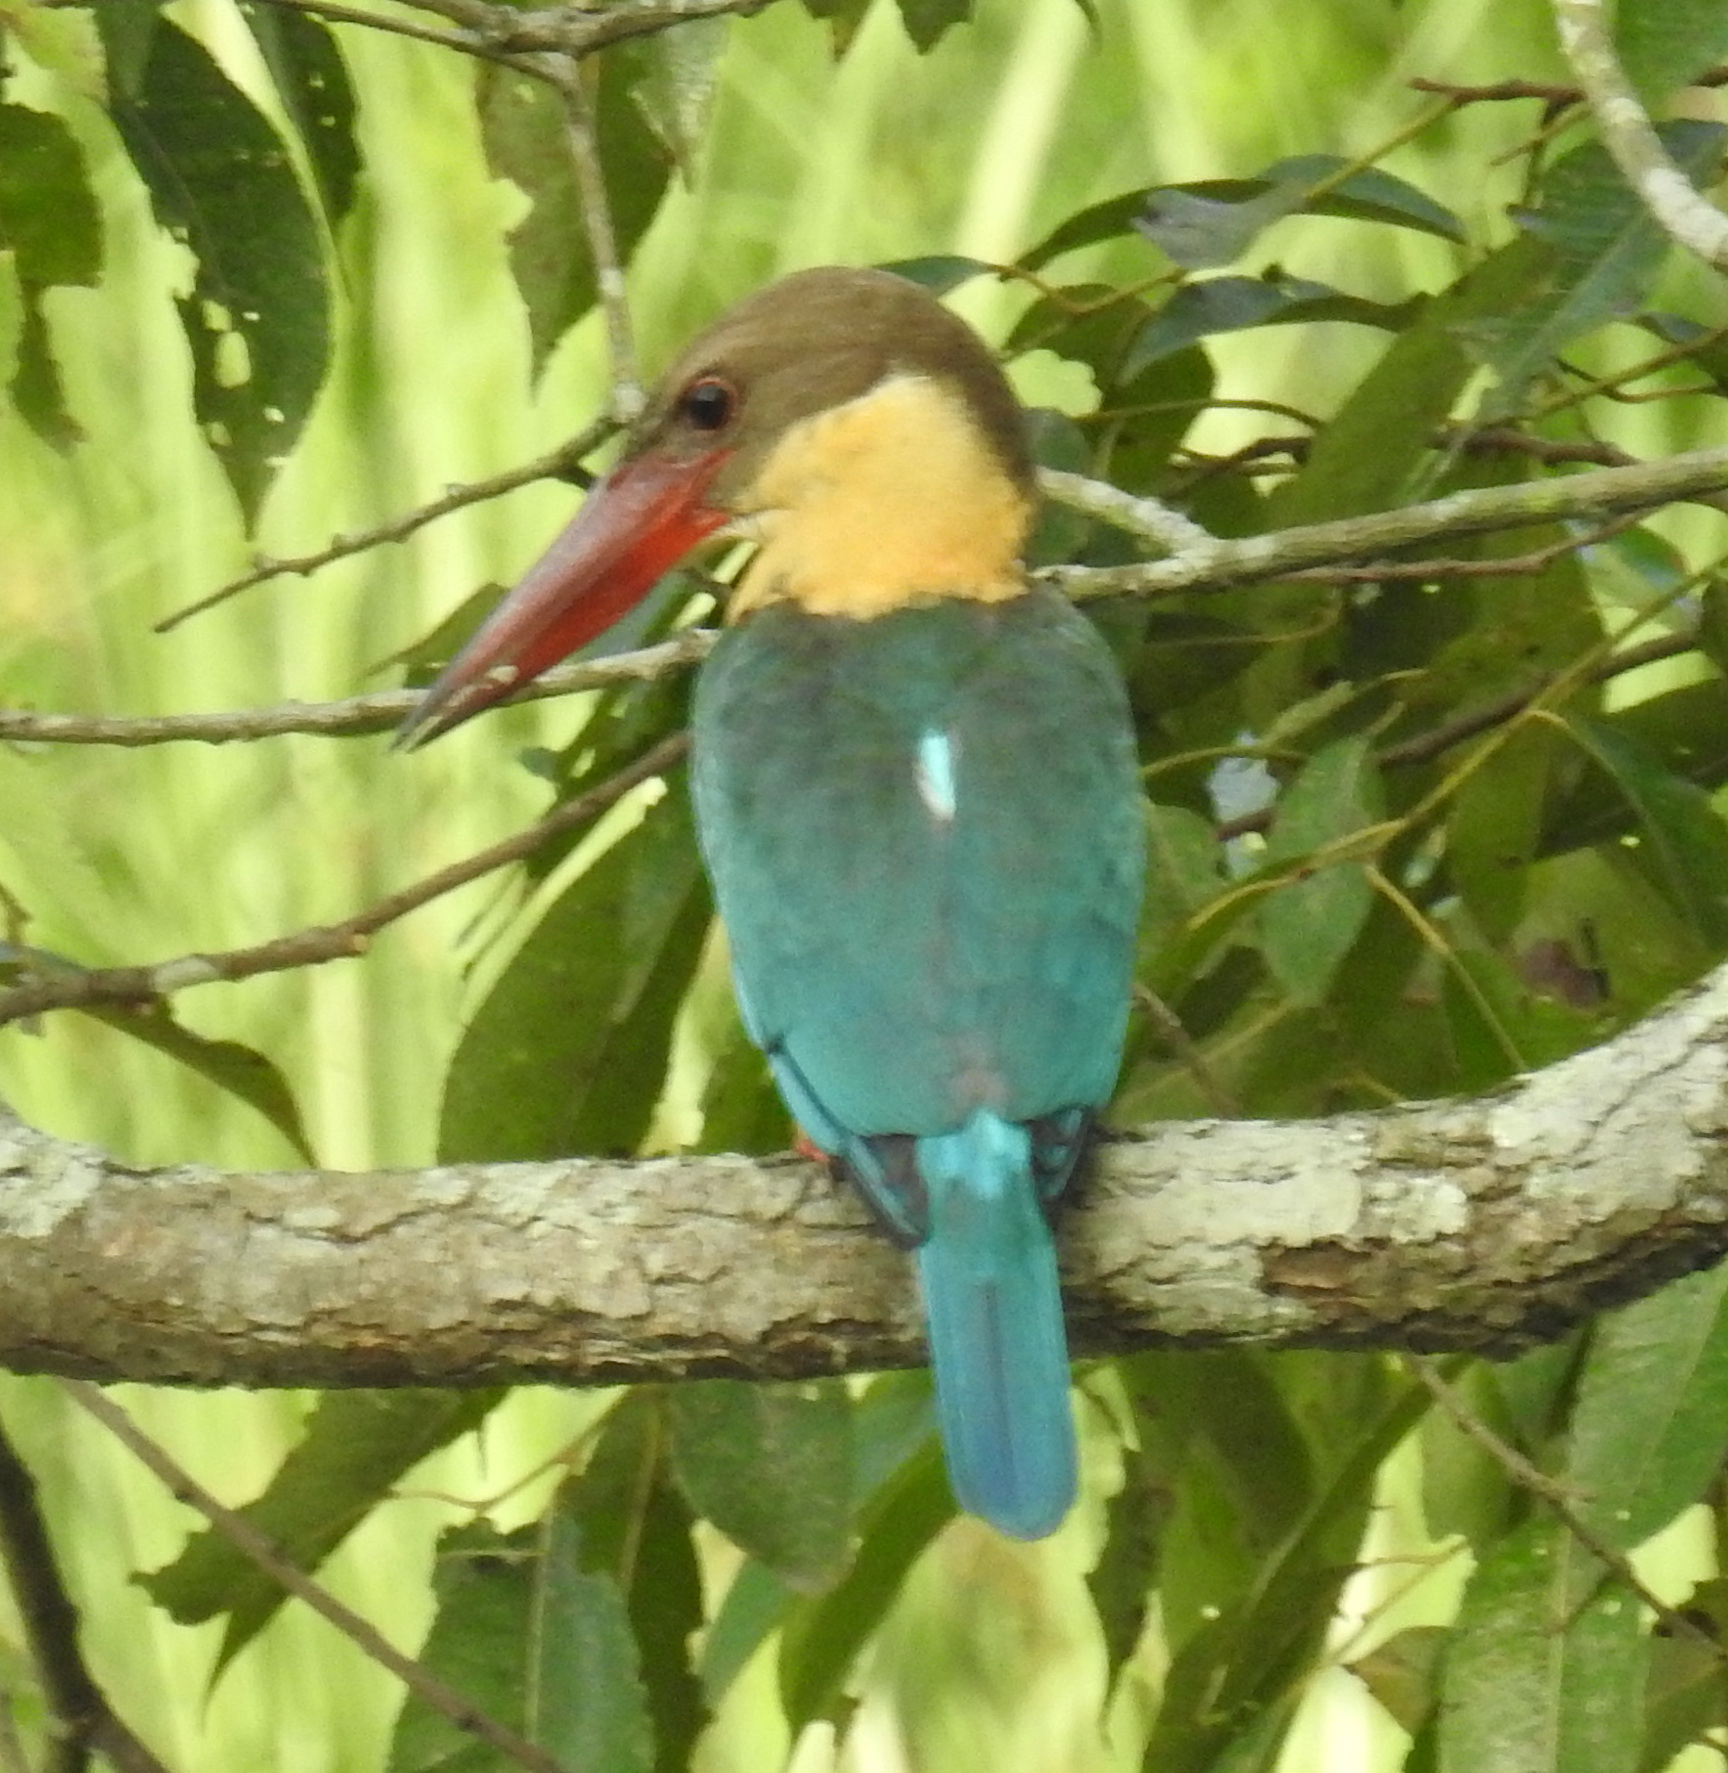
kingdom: Animalia
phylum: Chordata
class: Aves
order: Coraciiformes
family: Alcedinidae
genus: Pelargopsis
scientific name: Pelargopsis capensis
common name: Stork-billed kingfisher
